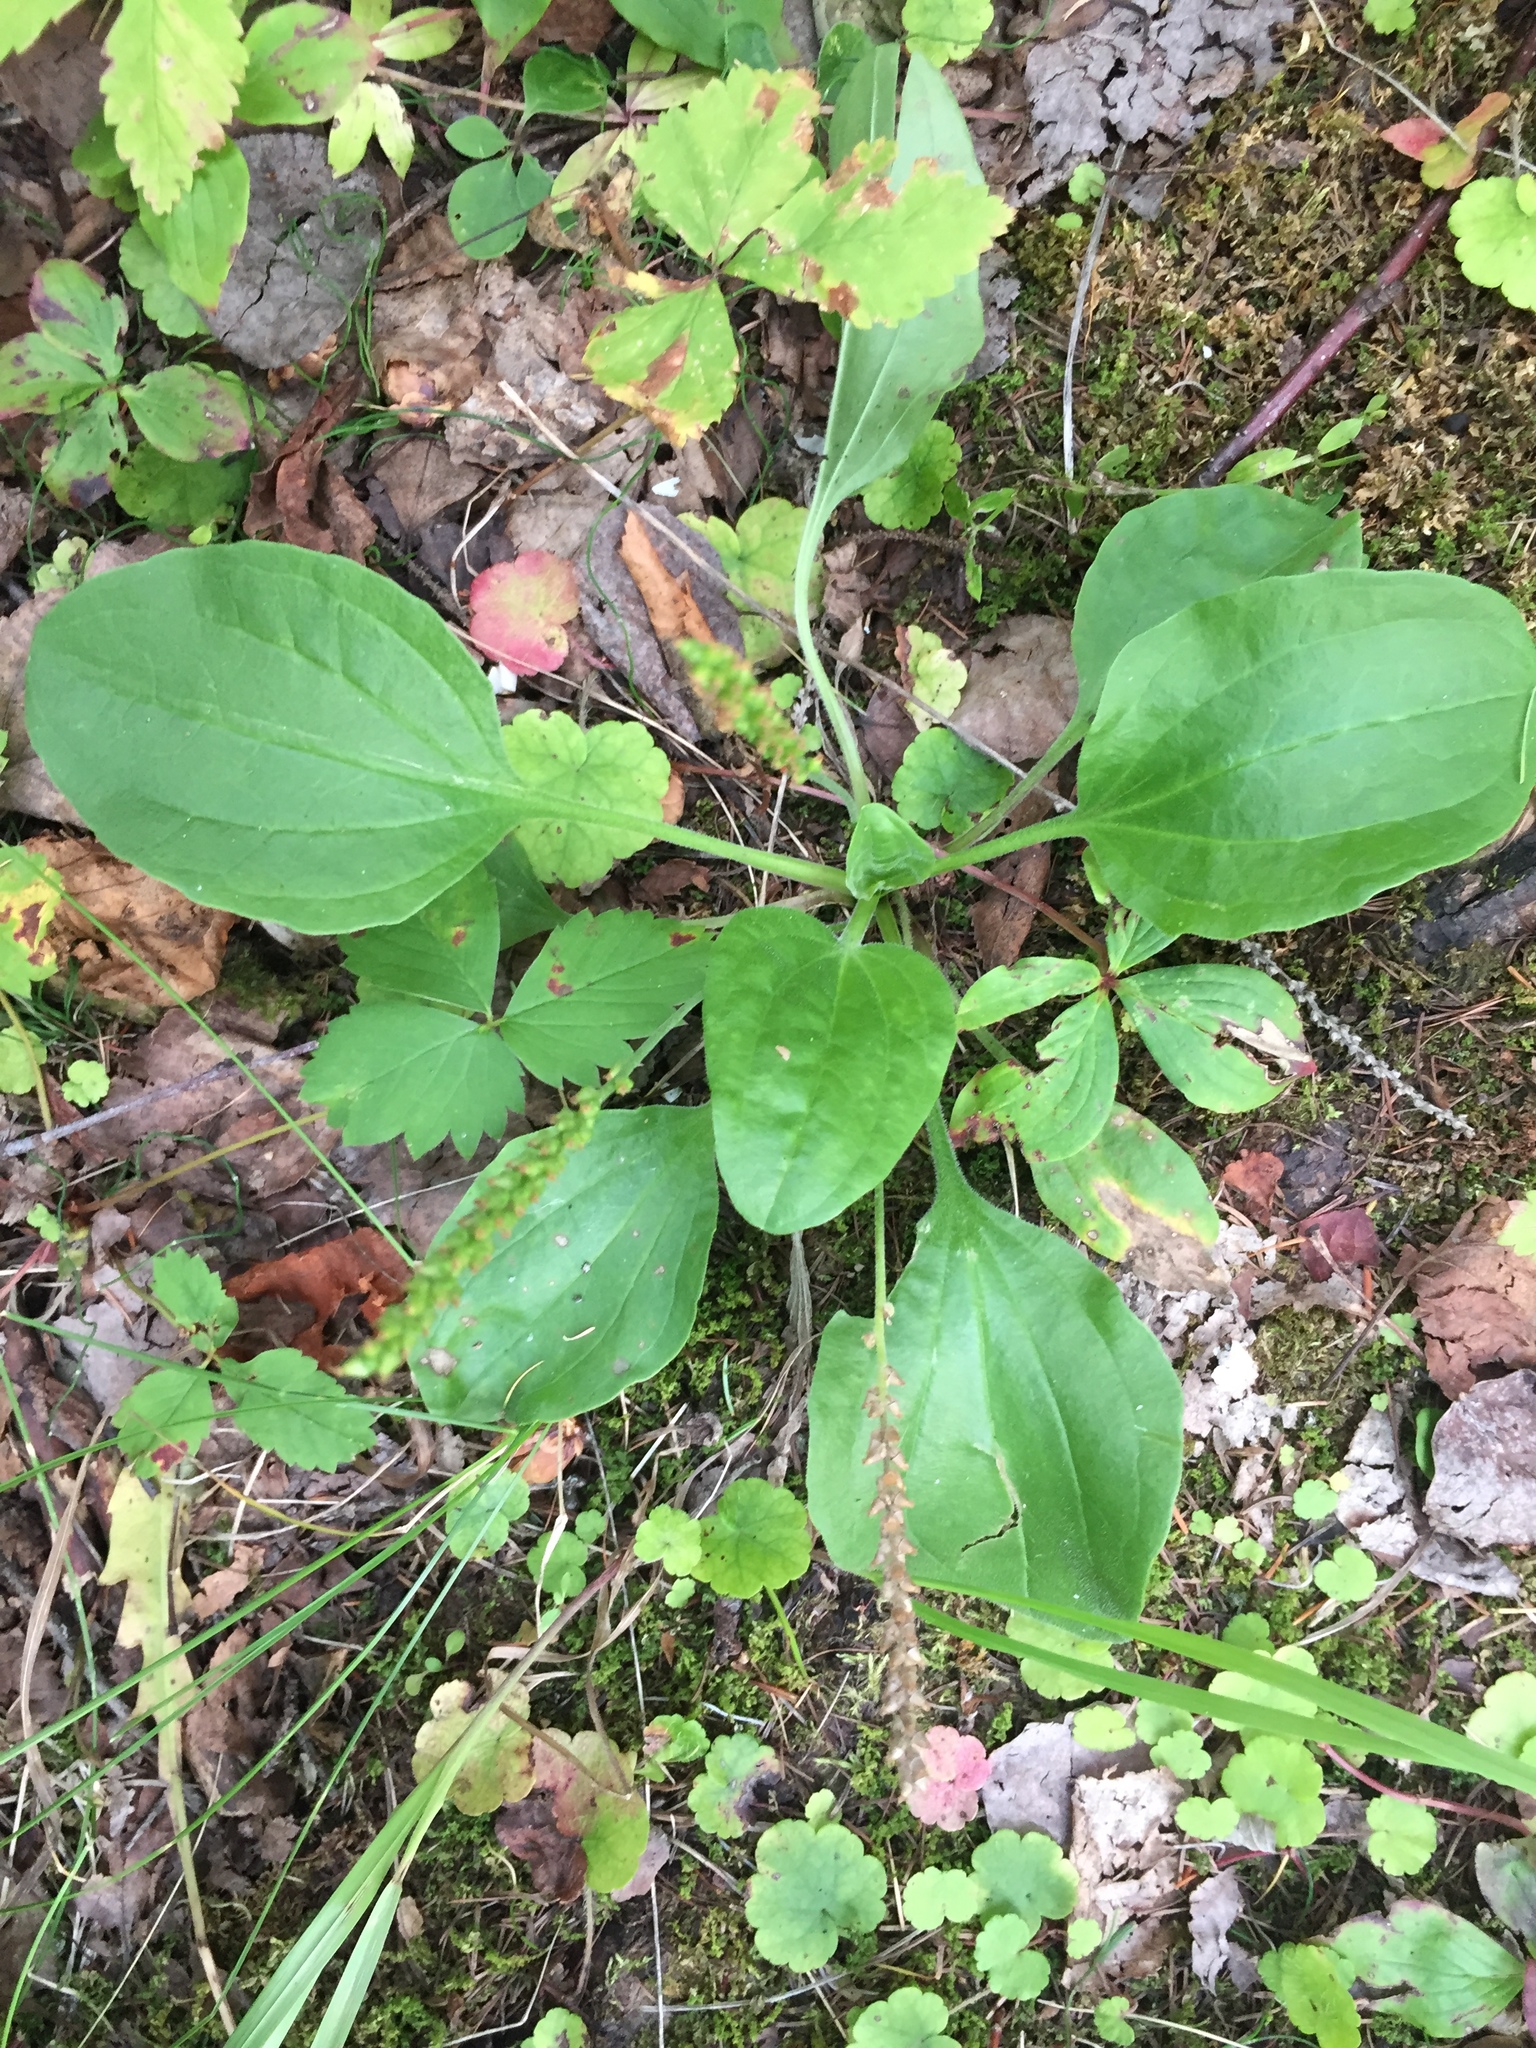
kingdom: Plantae
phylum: Tracheophyta
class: Magnoliopsida
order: Lamiales
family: Plantaginaceae
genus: Plantago
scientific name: Plantago major
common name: Common plantain
